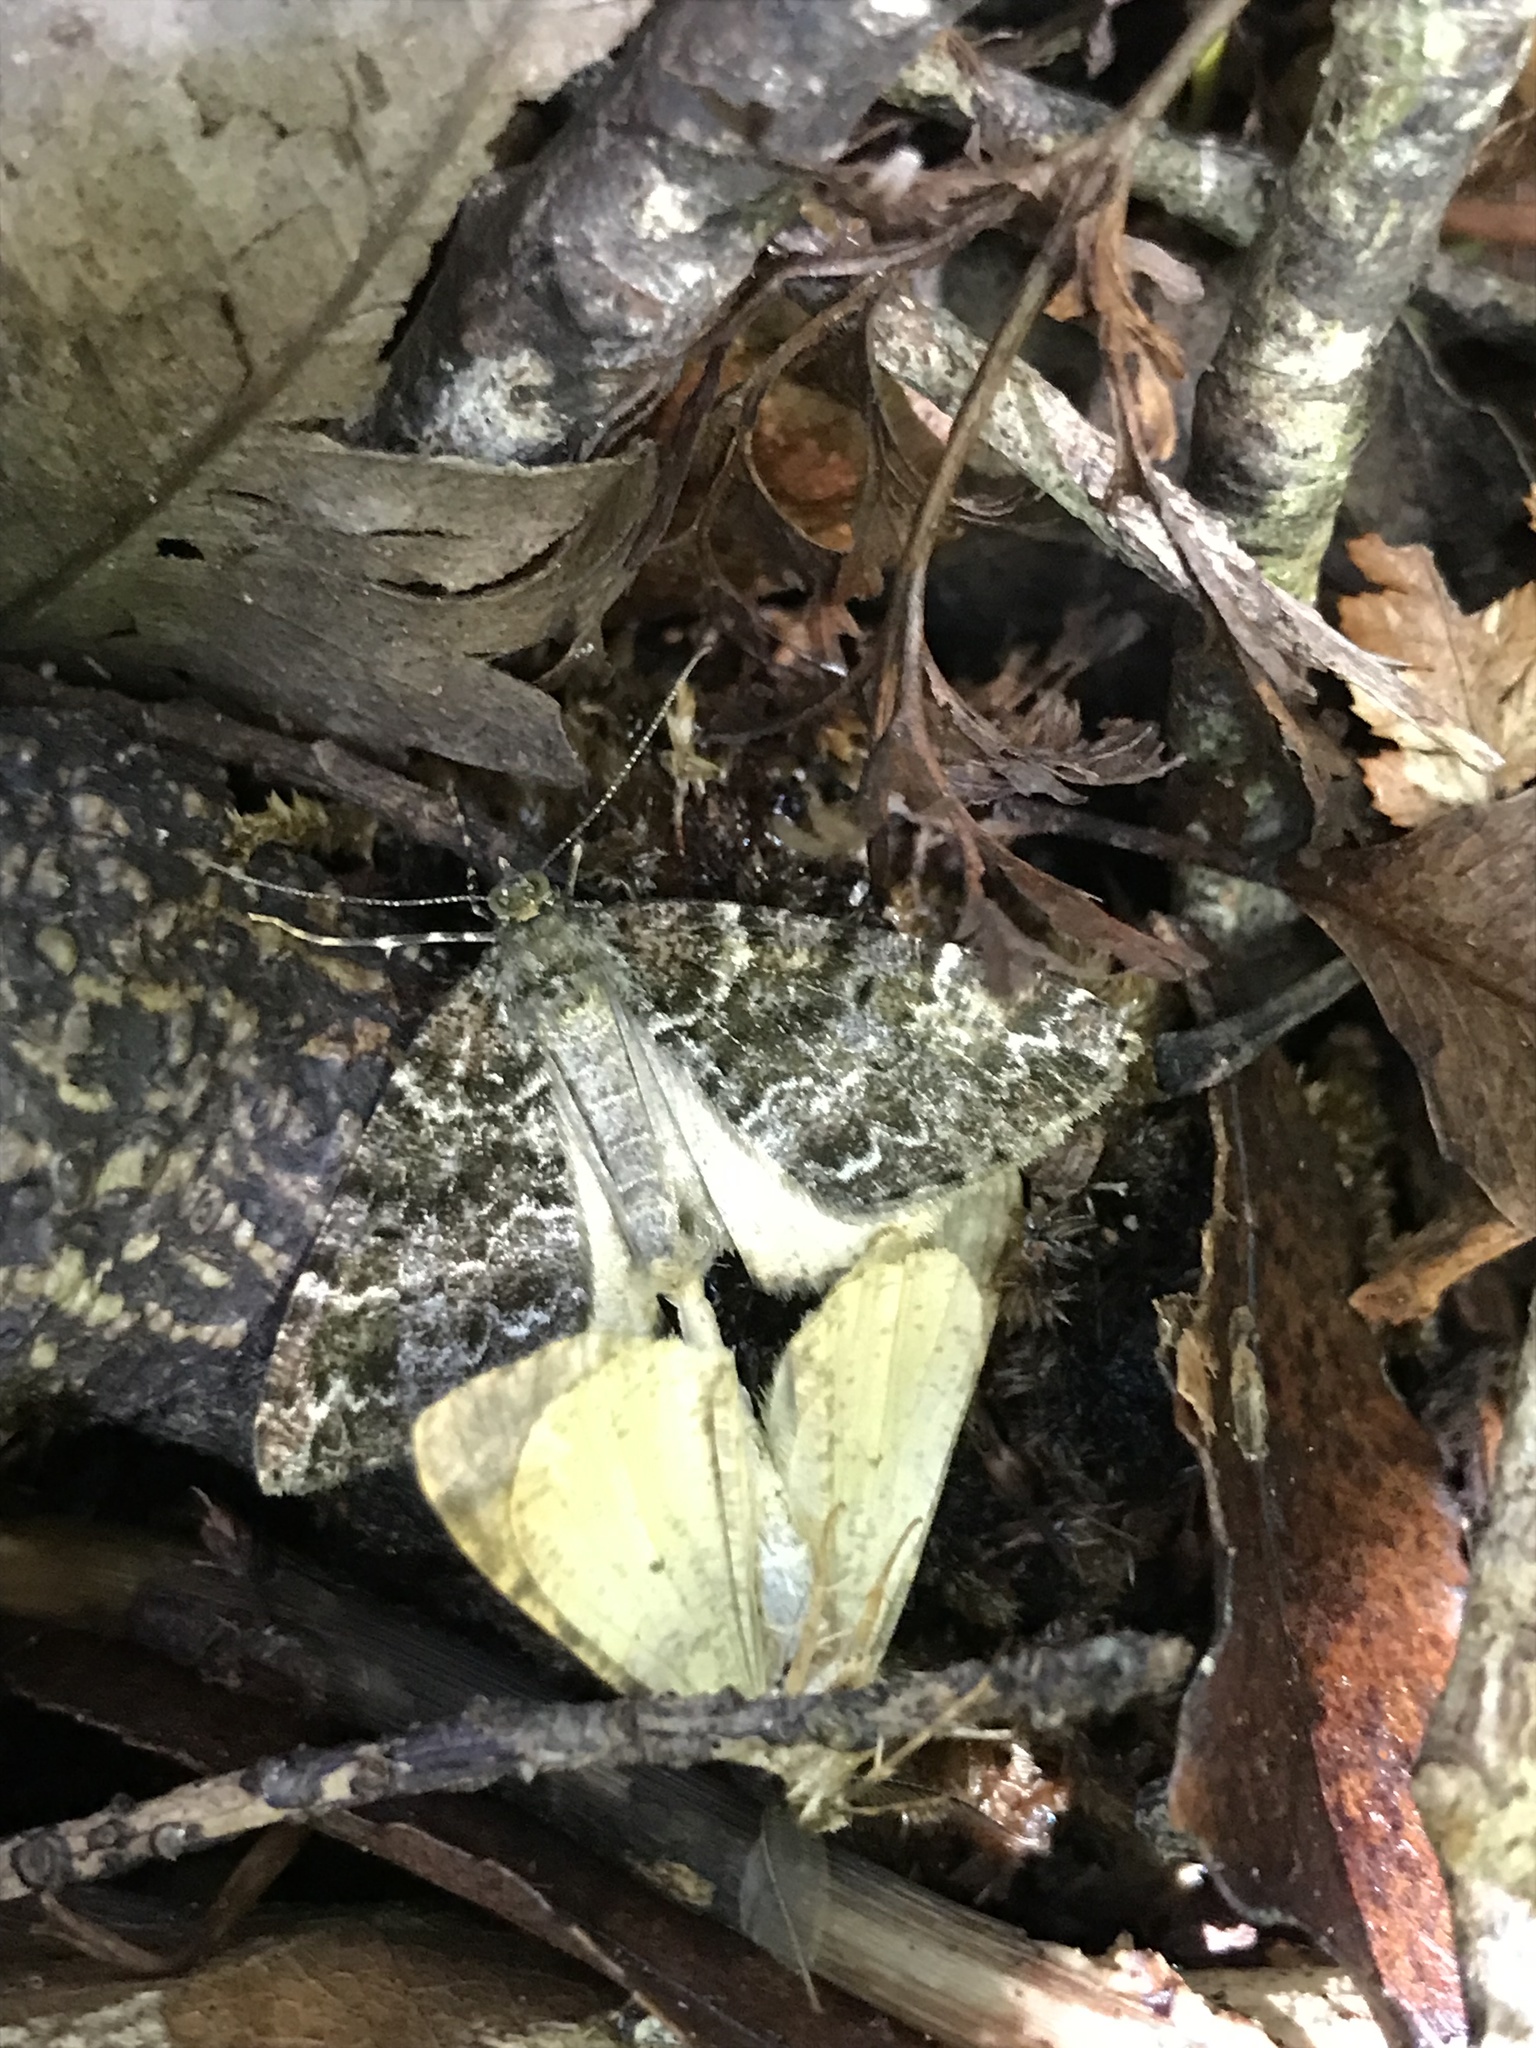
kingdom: Animalia
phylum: Arthropoda
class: Insecta
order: Lepidoptera
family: Geometridae
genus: Pseudocoremia
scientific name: Pseudocoremia productata
